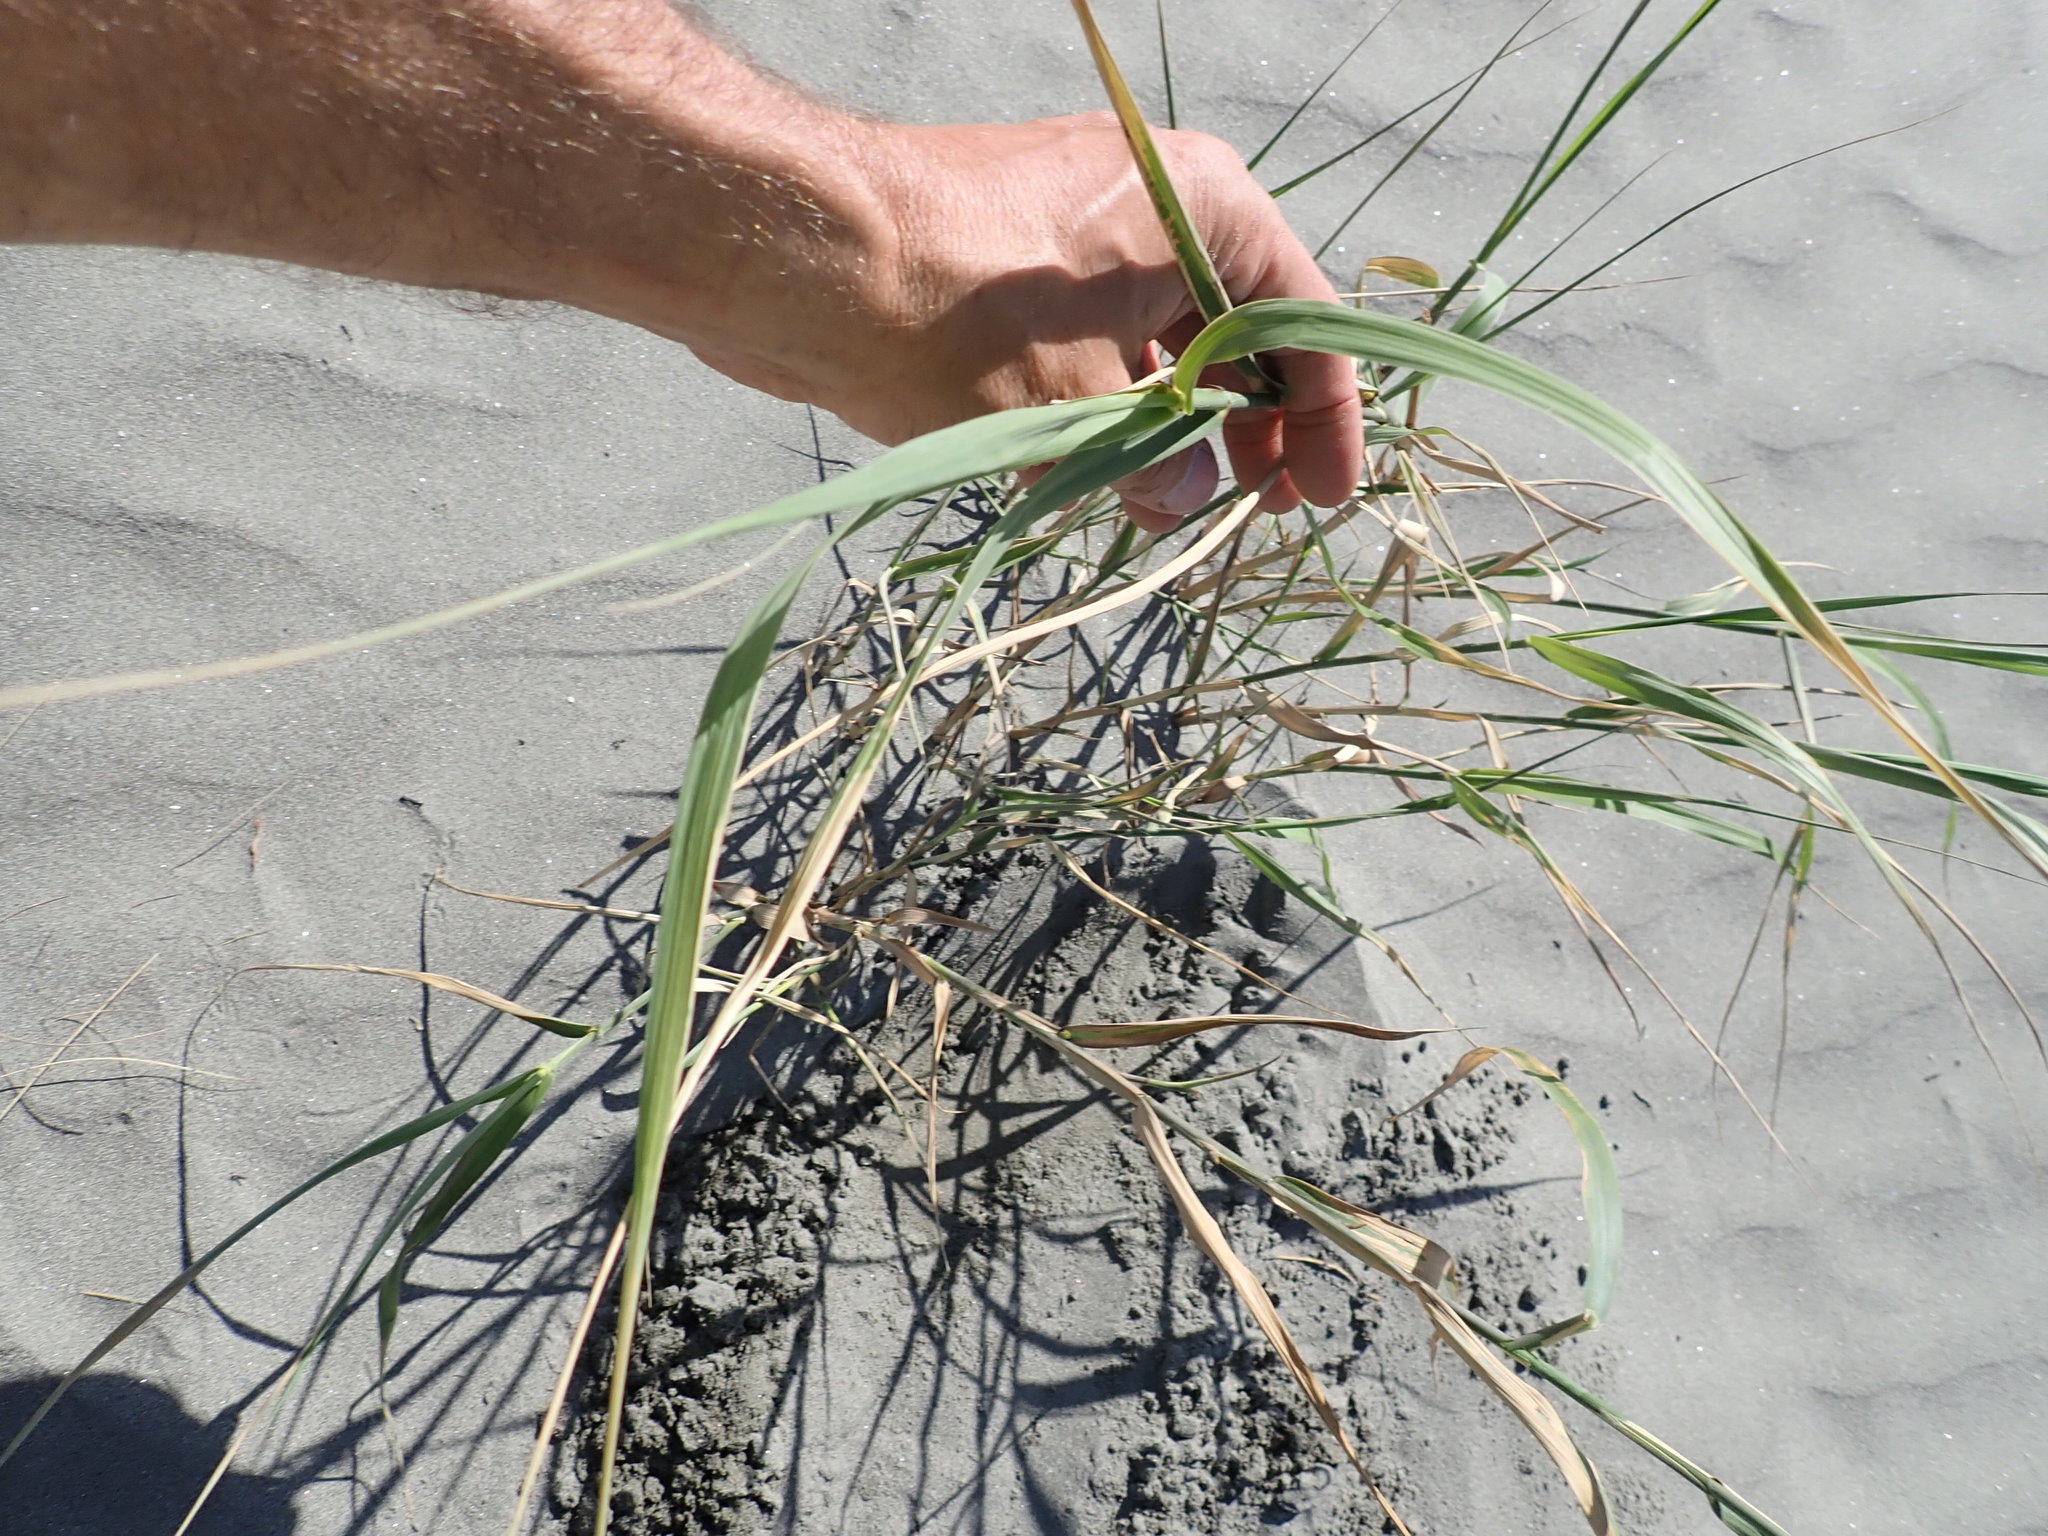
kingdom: Plantae
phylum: Tracheophyta
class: Liliopsida
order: Poales
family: Poaceae
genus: Phragmites
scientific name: Phragmites karka
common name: Tropical reed
